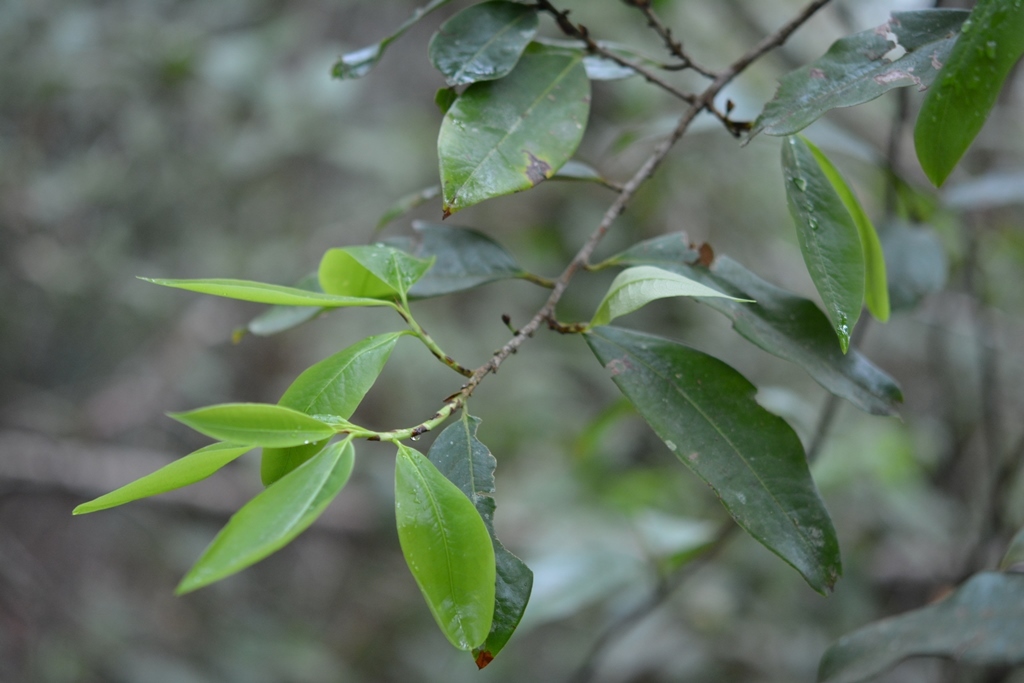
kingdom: Plantae
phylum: Tracheophyta
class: Magnoliopsida
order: Malpighiales
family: Erythroxylaceae
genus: Erythroxylum
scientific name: Erythroxylum macrophyllum
